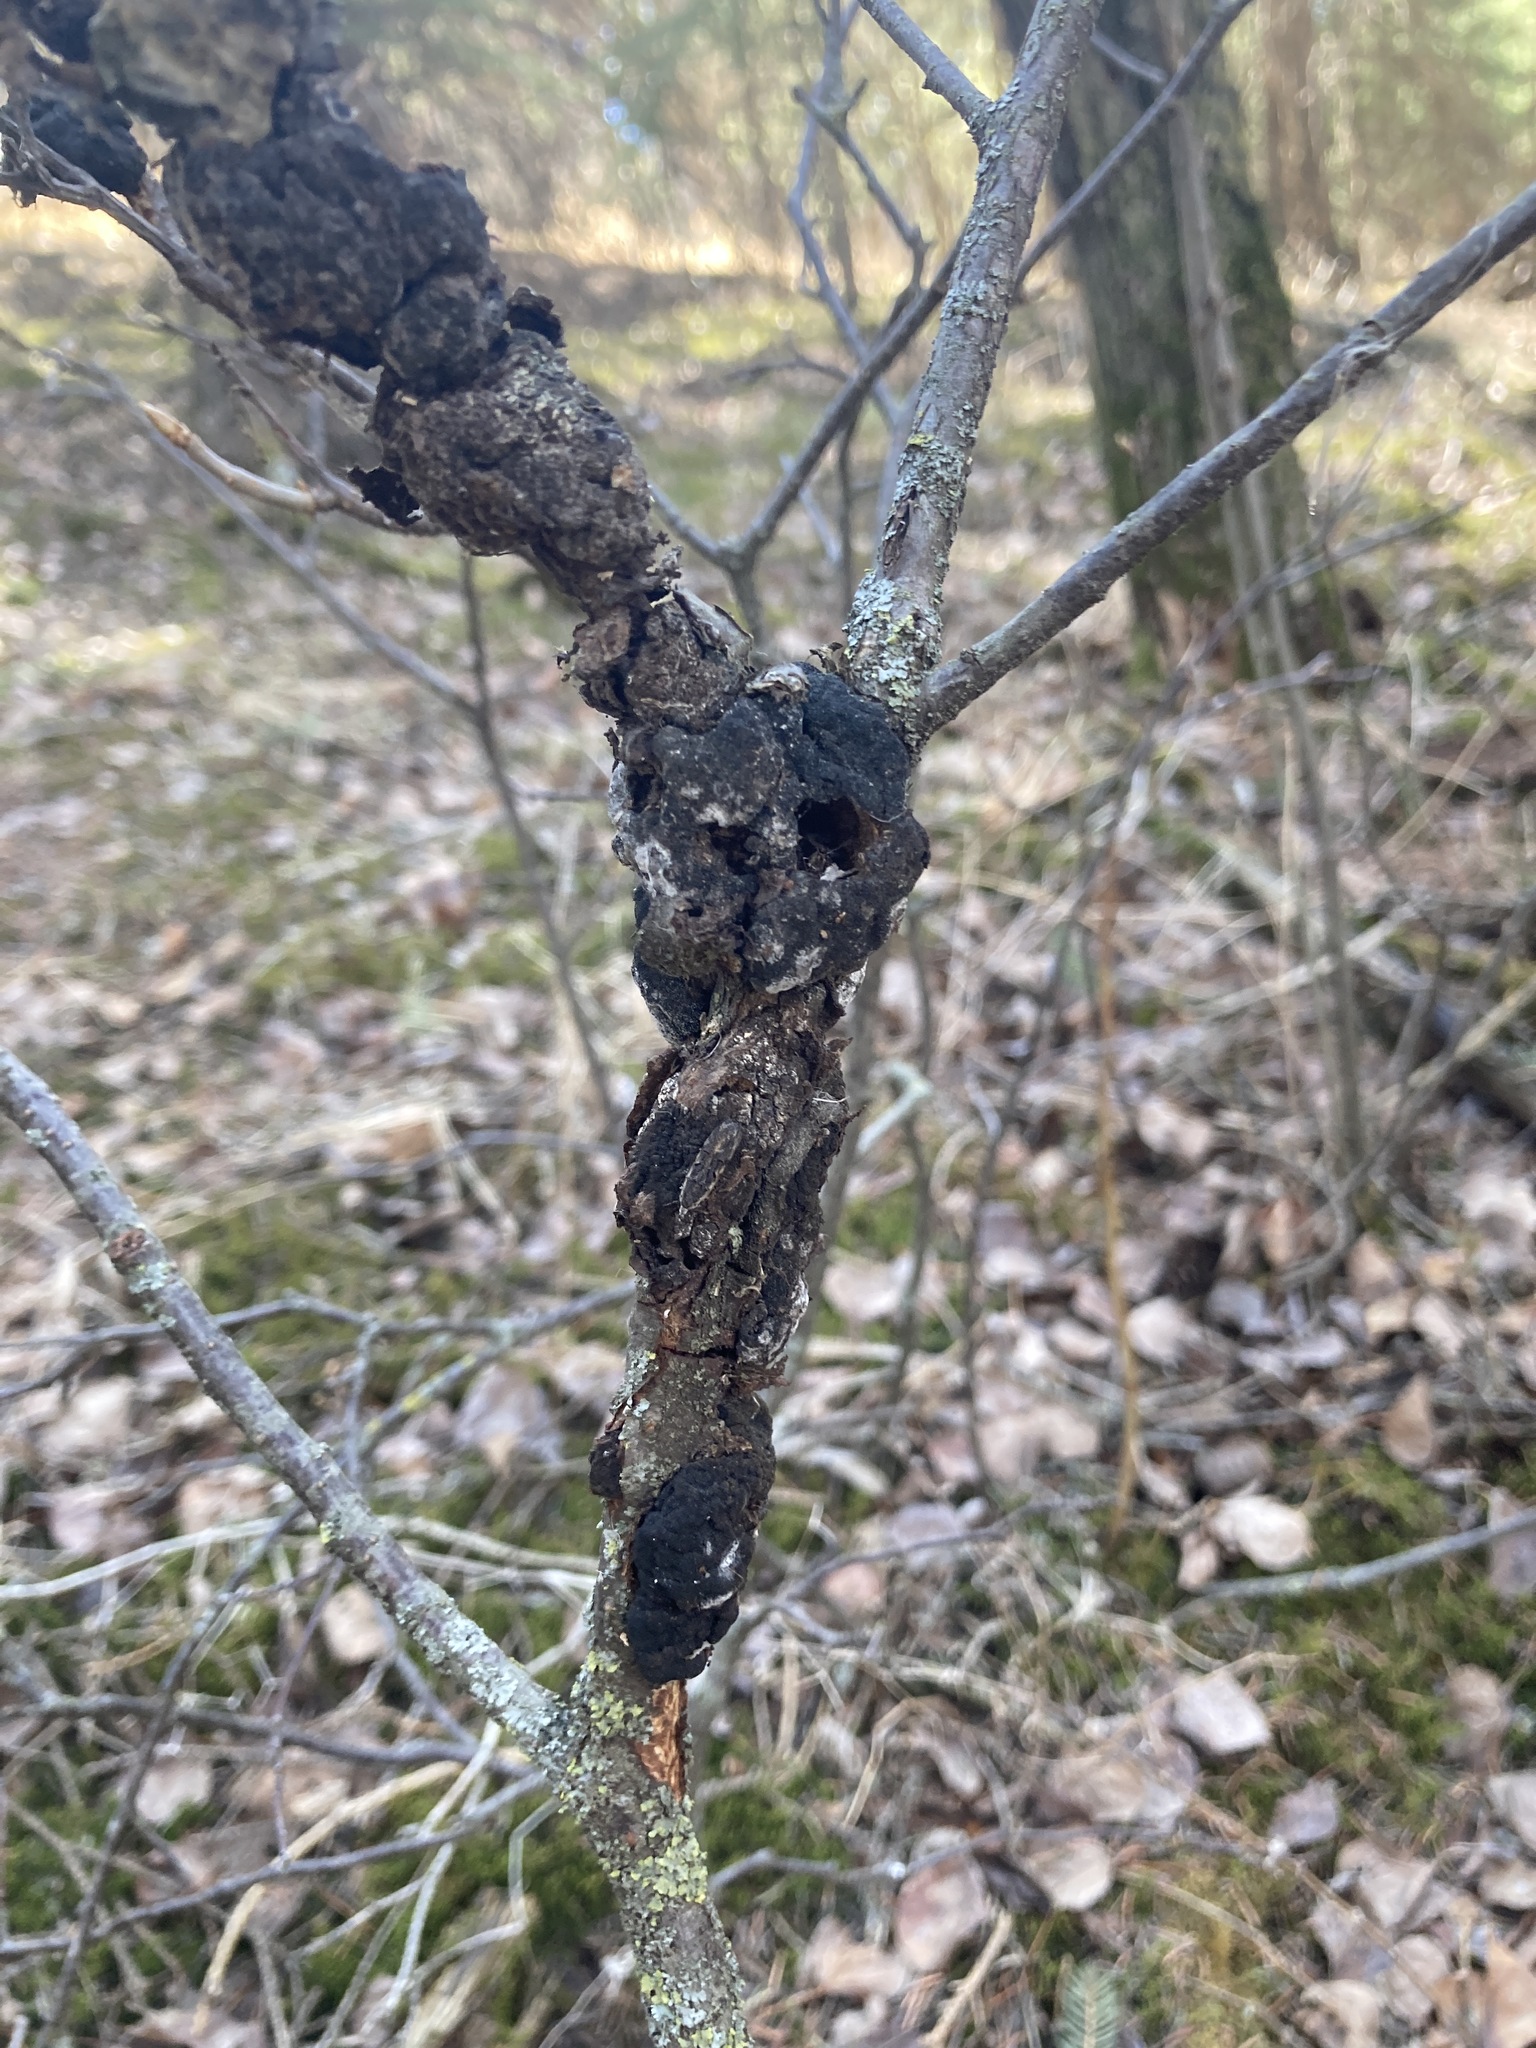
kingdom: Fungi
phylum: Ascomycota
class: Dothideomycetes
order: Venturiales
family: Venturiaceae
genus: Apiosporina
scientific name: Apiosporina morbosa
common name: Black knot
